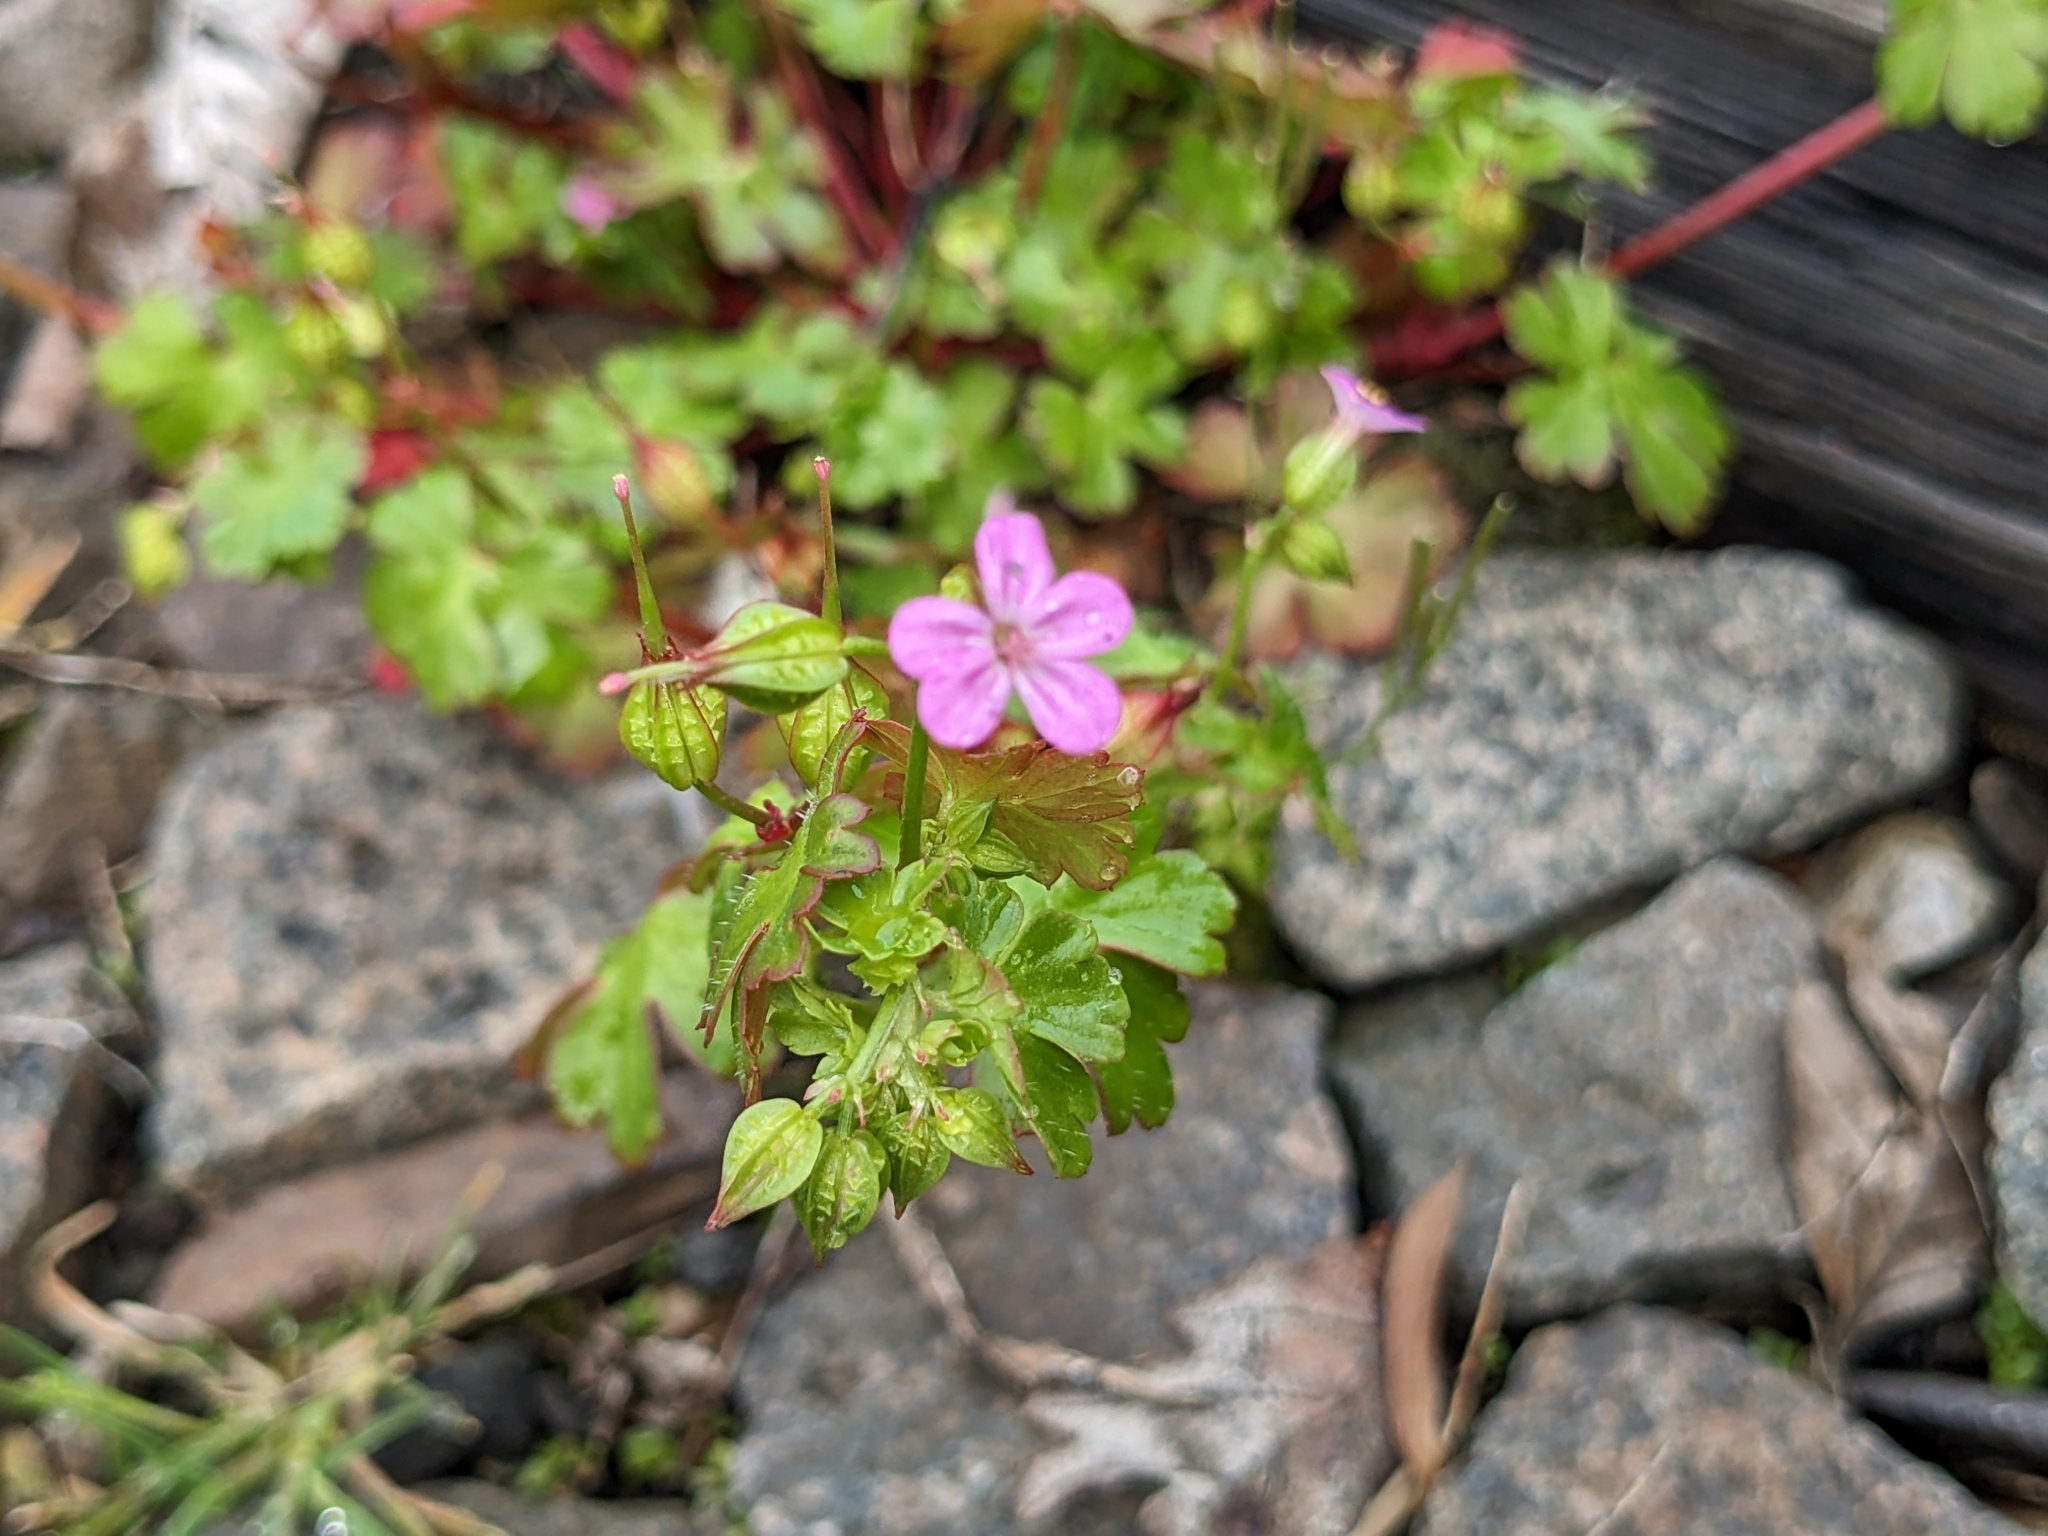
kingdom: Plantae
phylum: Tracheophyta
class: Magnoliopsida
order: Geraniales
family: Geraniaceae
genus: Geranium
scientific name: Geranium robertianum
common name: Herb-robert
